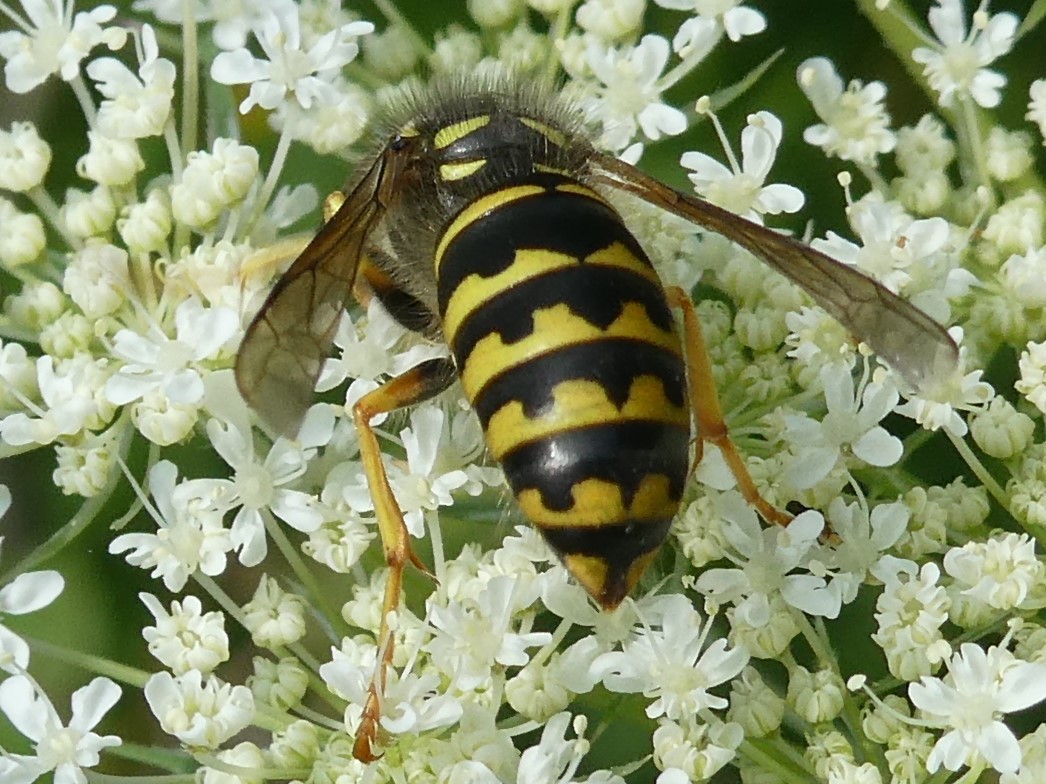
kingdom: Animalia
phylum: Arthropoda
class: Insecta
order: Hymenoptera
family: Vespidae
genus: Dolichovespula
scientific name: Dolichovespula arenaria
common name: Aerial yellowjacket
